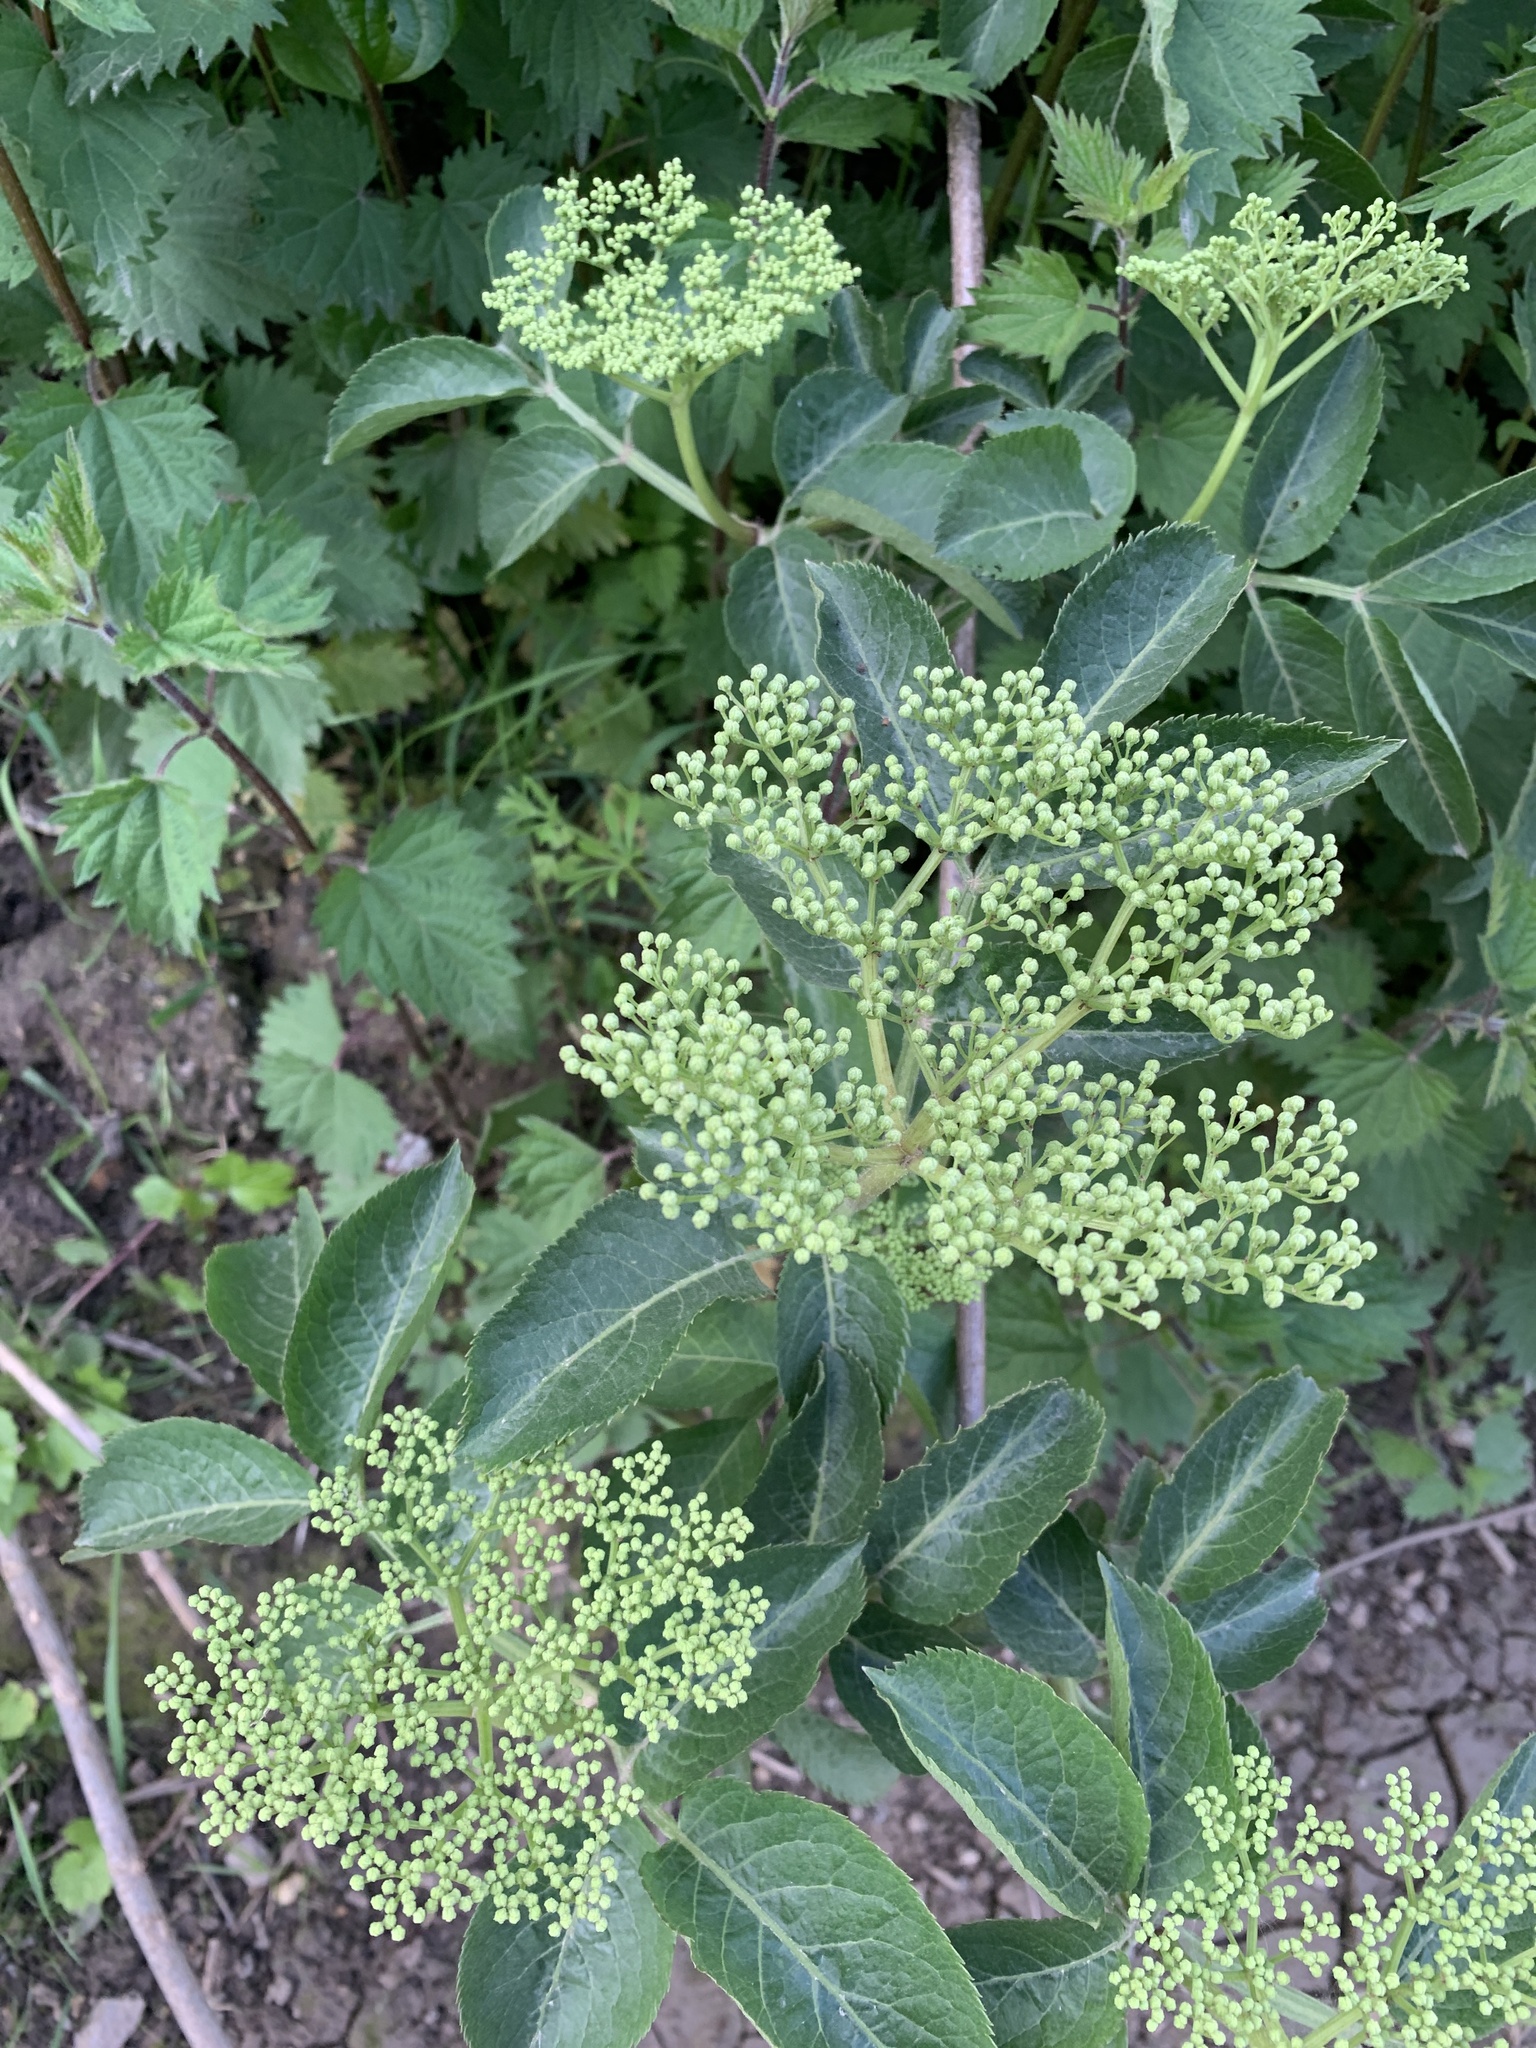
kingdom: Plantae
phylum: Tracheophyta
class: Magnoliopsida
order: Dipsacales
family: Viburnaceae
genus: Sambucus
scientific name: Sambucus nigra
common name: Elder
